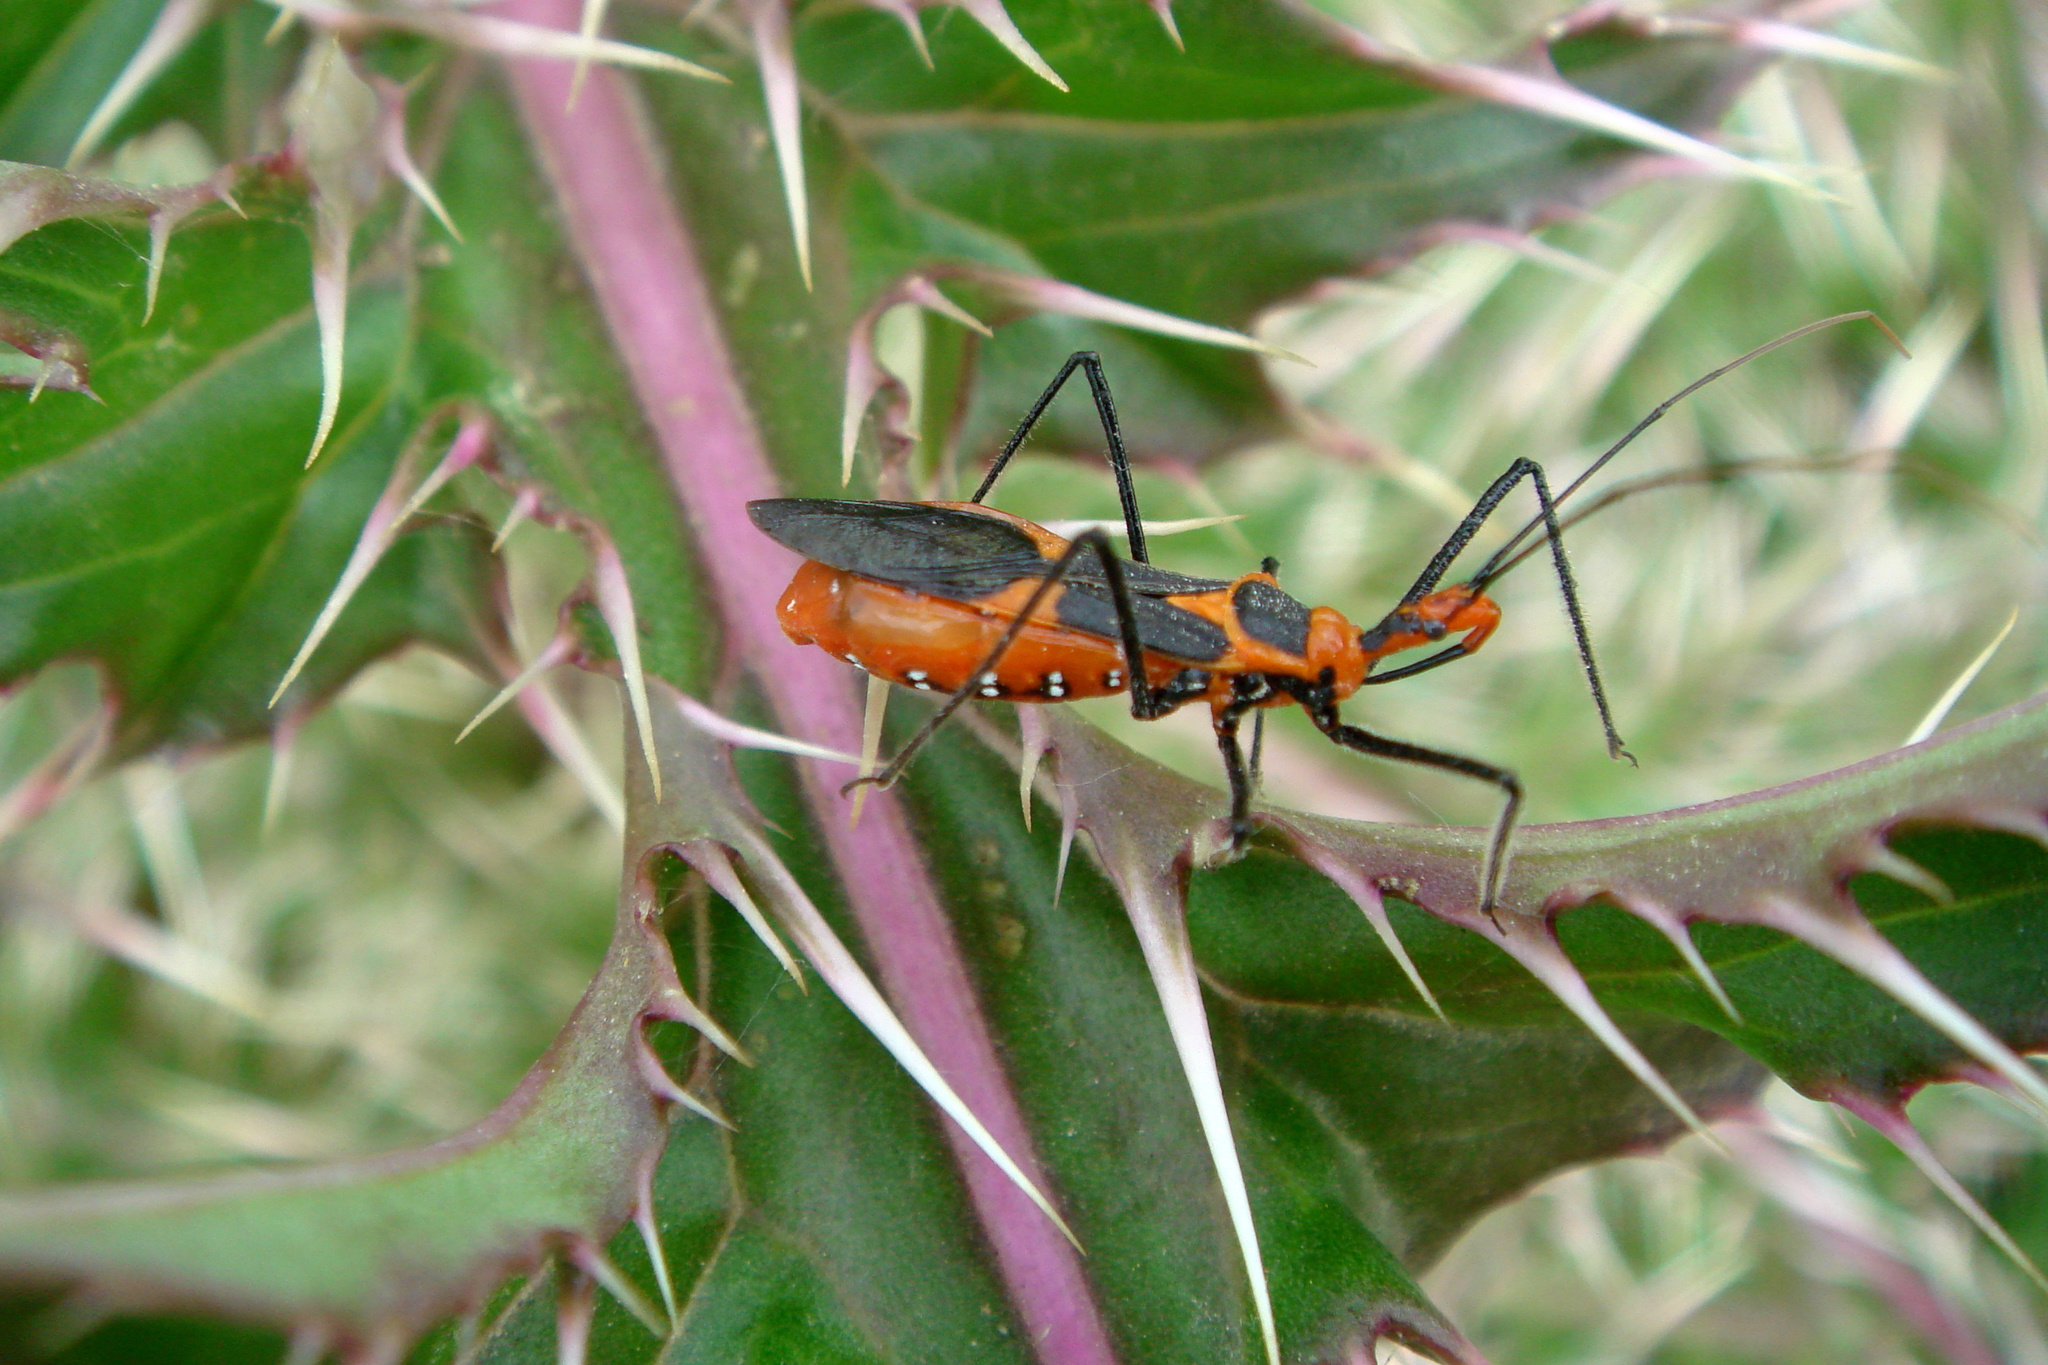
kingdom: Animalia
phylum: Arthropoda
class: Insecta
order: Hemiptera
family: Reduviidae
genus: Zelus
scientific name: Zelus longipes
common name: Milkweed assassin bug
